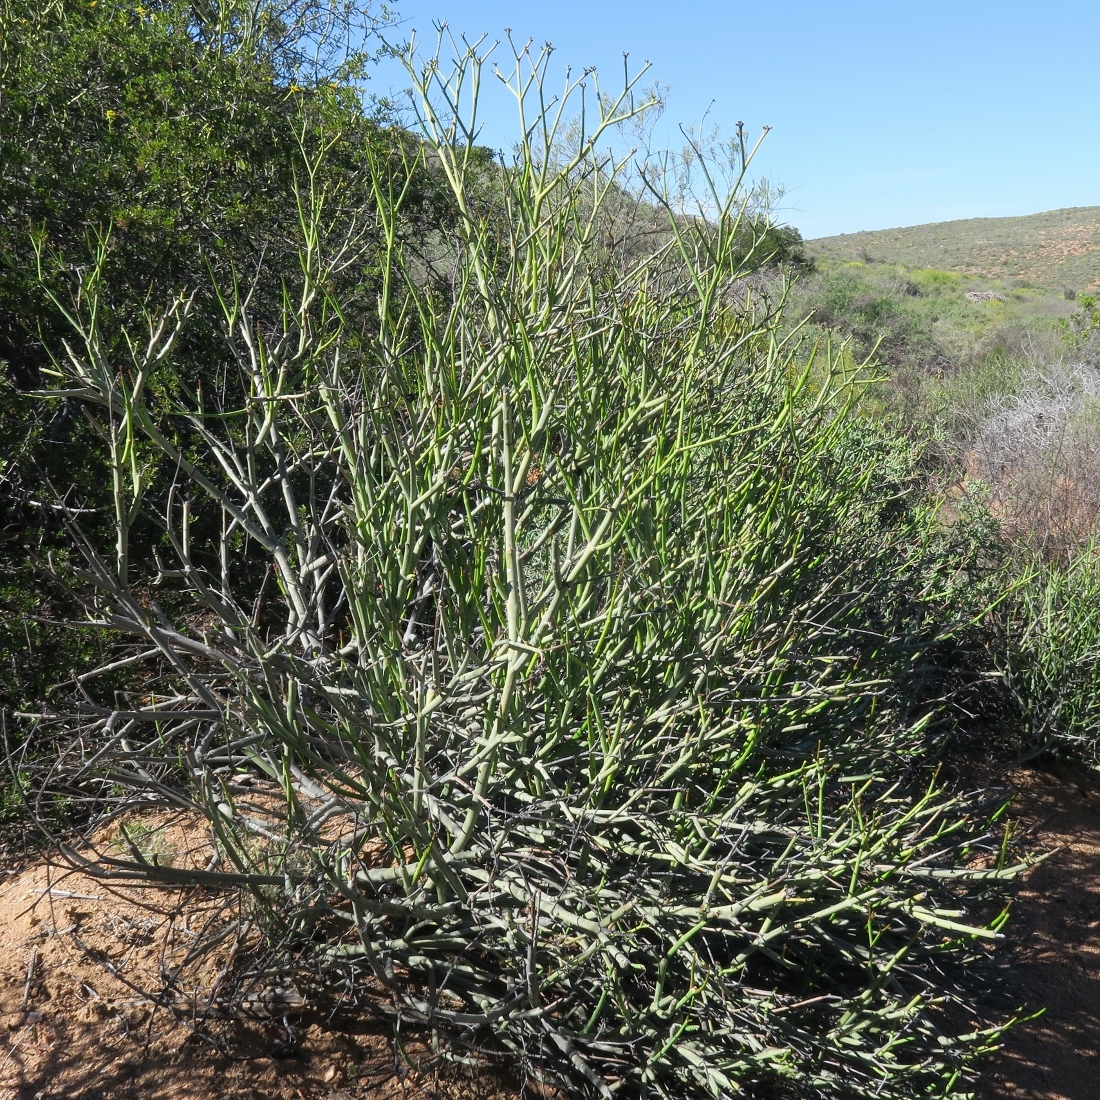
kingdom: Plantae
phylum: Tracheophyta
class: Magnoliopsida
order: Malpighiales
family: Euphorbiaceae
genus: Euphorbia
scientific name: Euphorbia rhombifolia
